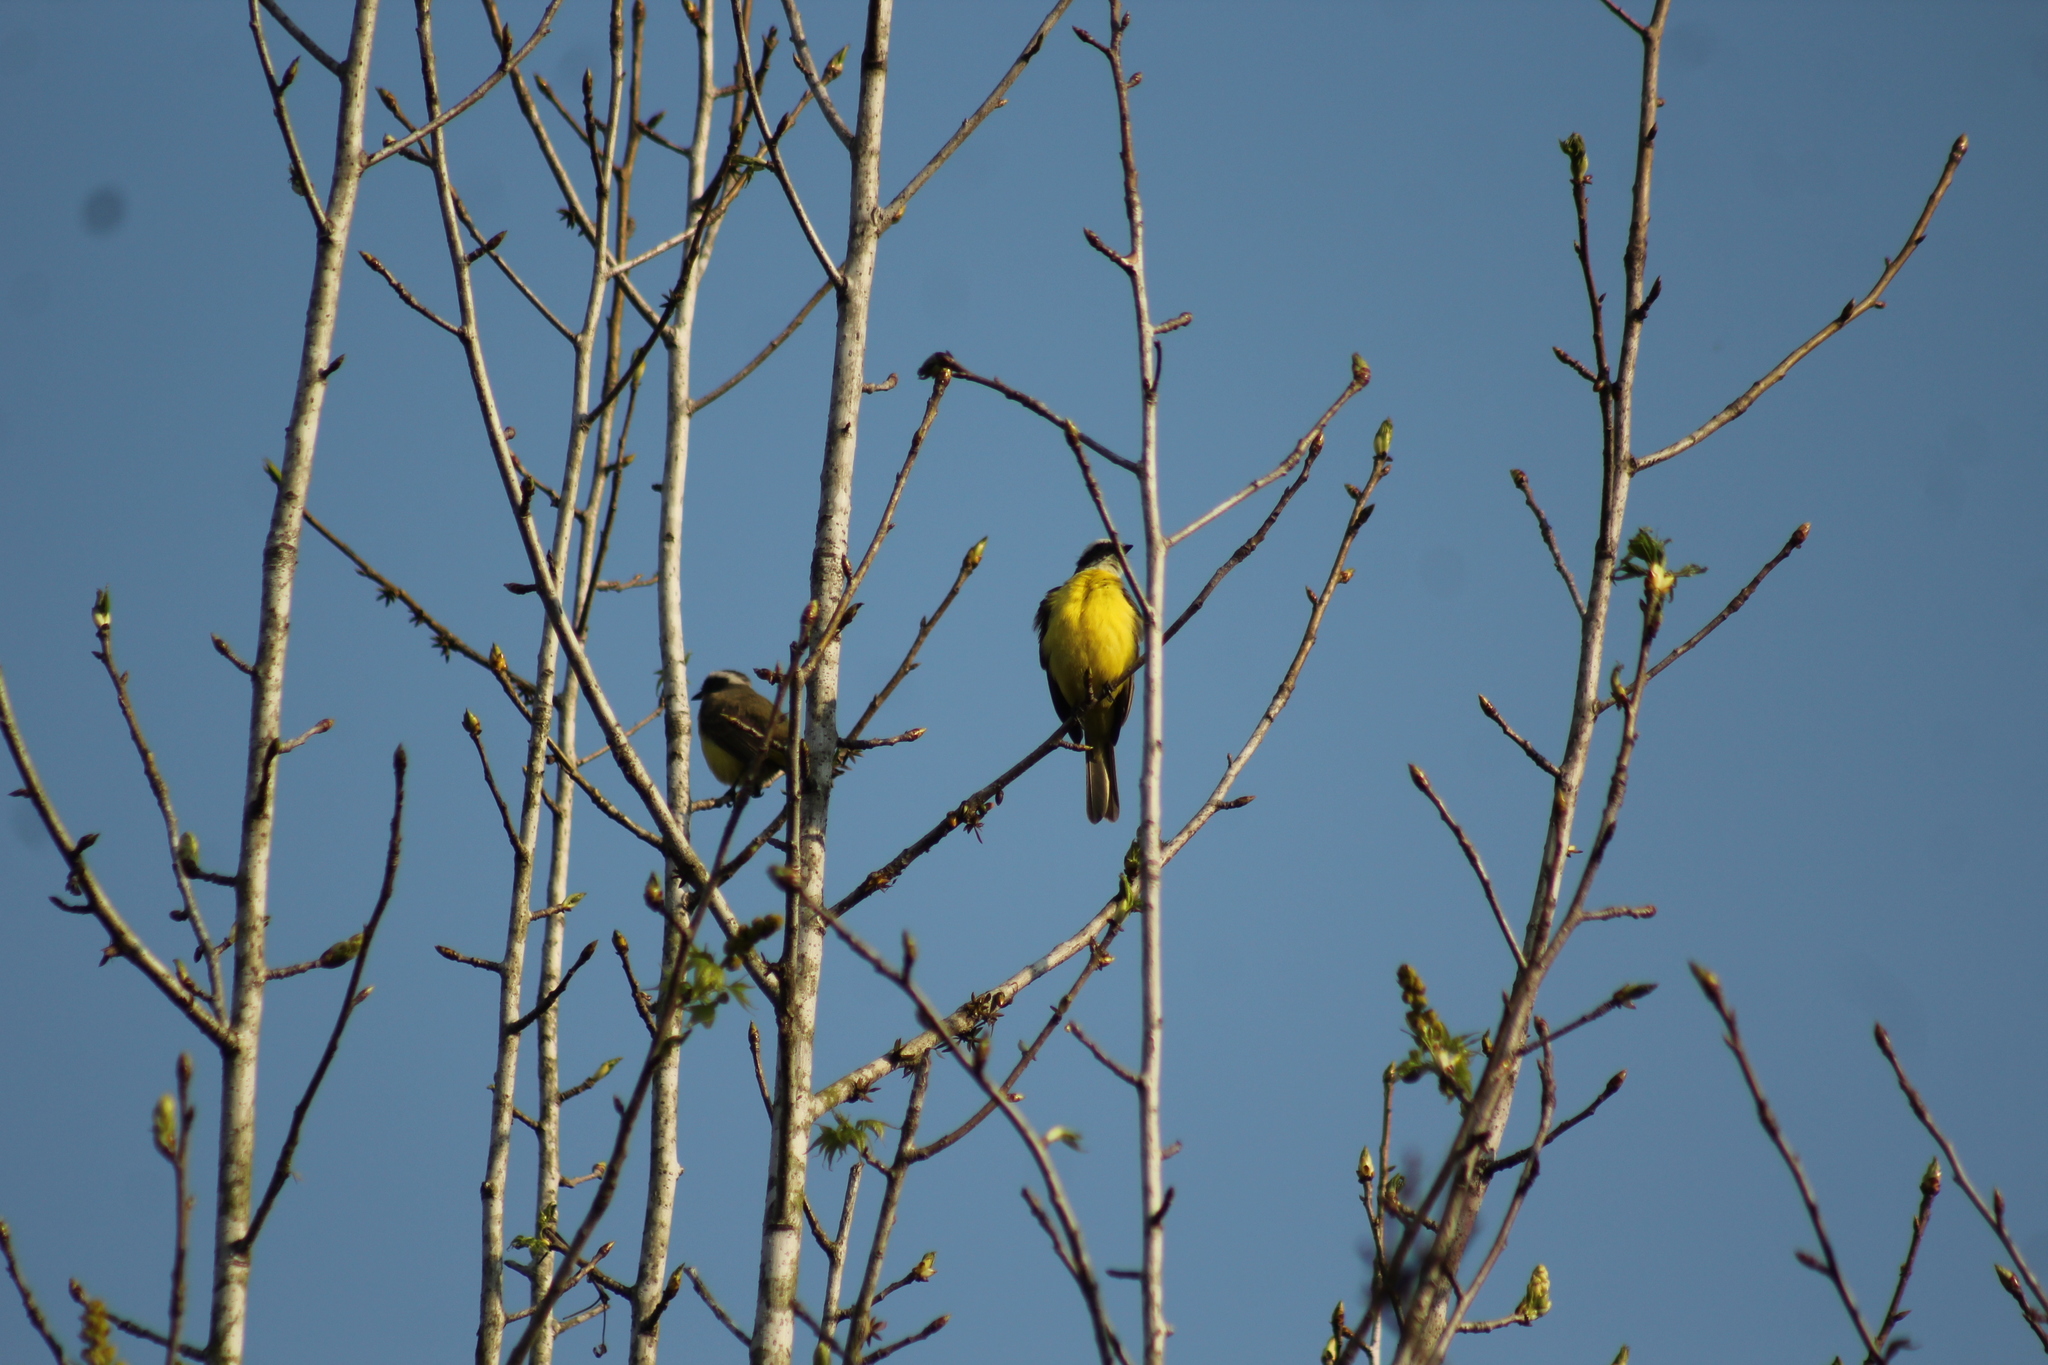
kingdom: Animalia
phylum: Chordata
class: Aves
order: Passeriformes
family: Tyrannidae
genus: Myiozetetes
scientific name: Myiozetetes similis
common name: Social flycatcher
